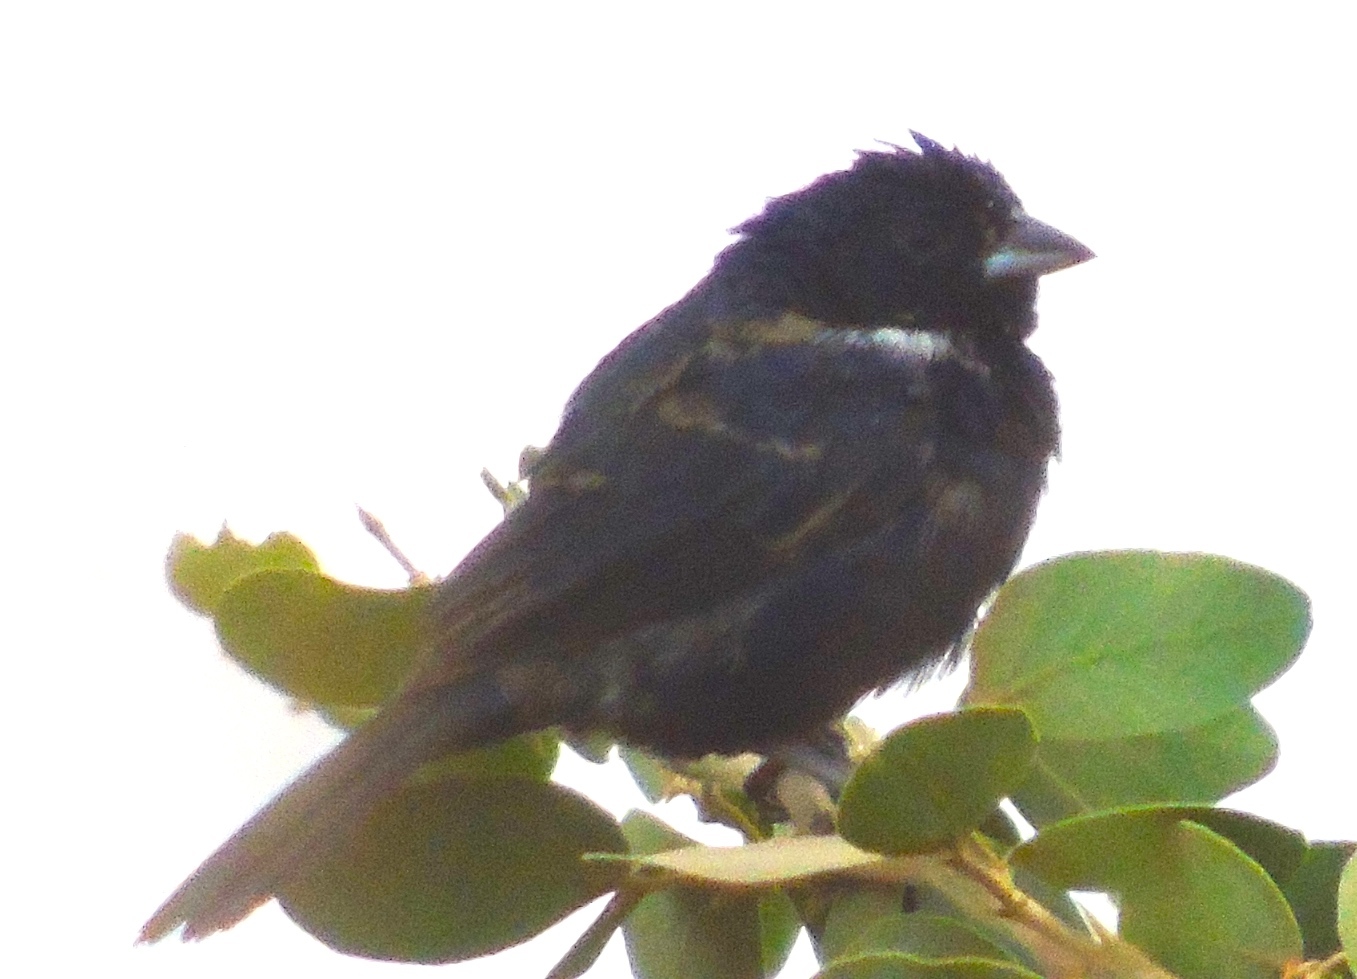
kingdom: Animalia
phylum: Chordata
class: Aves
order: Passeriformes
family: Thraupidae
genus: Volatinia
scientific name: Volatinia jacarina
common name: Blue-black grassquit
